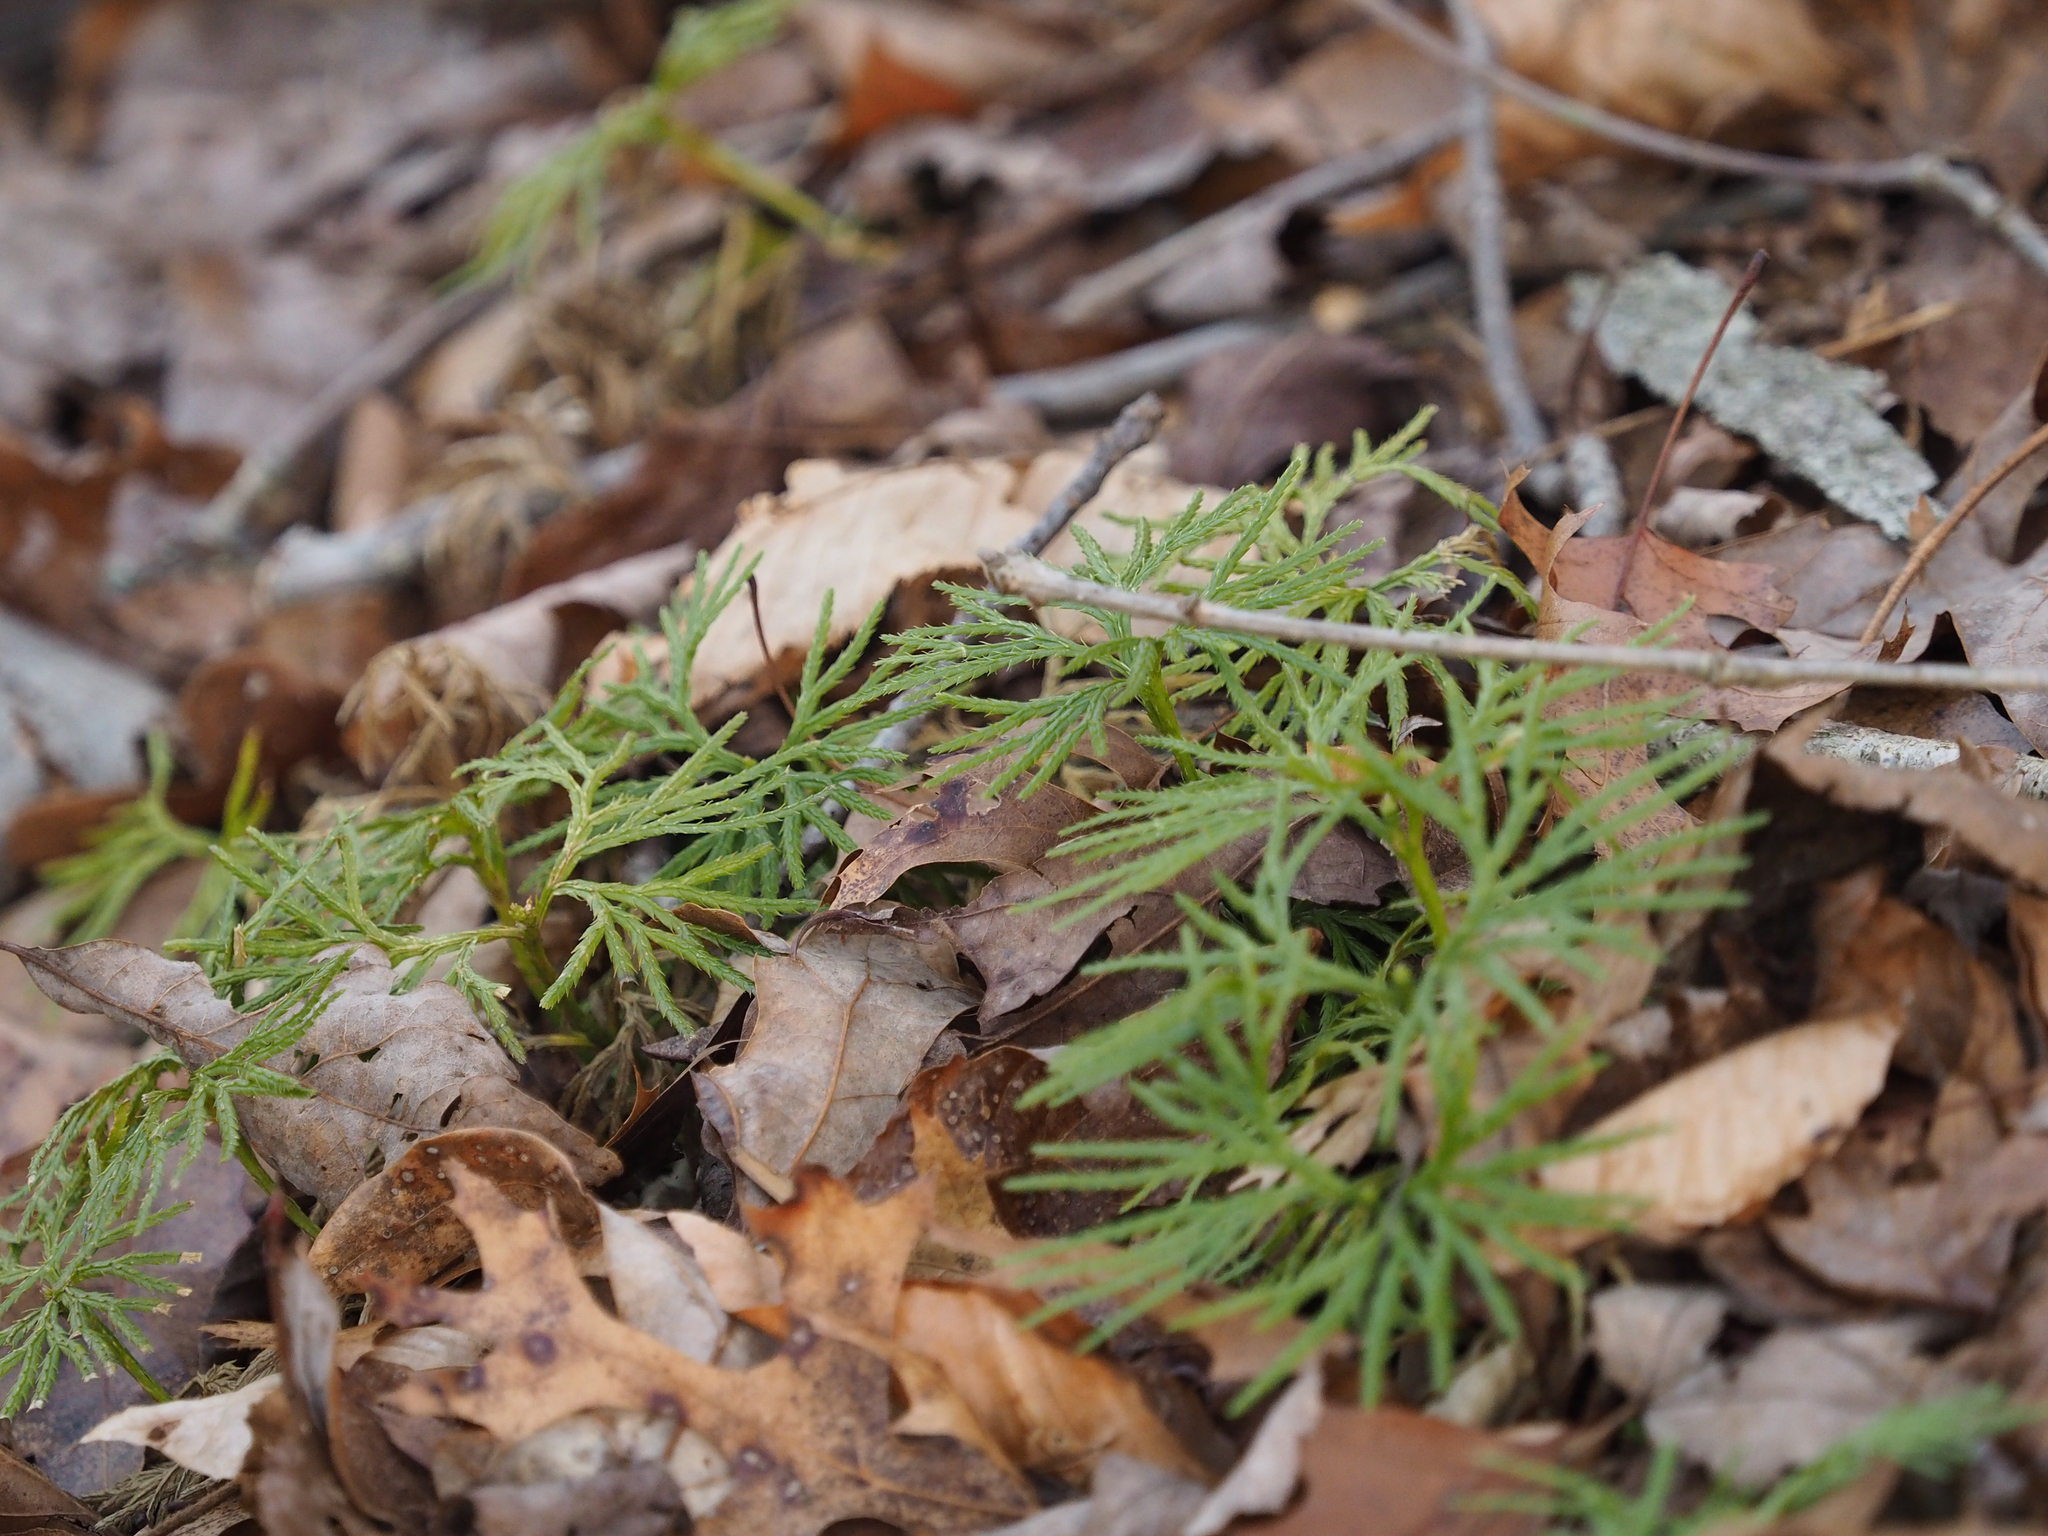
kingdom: Plantae
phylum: Tracheophyta
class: Lycopodiopsida
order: Lycopodiales
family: Lycopodiaceae
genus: Diphasiastrum
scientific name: Diphasiastrum digitatum
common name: Southern running-pine
